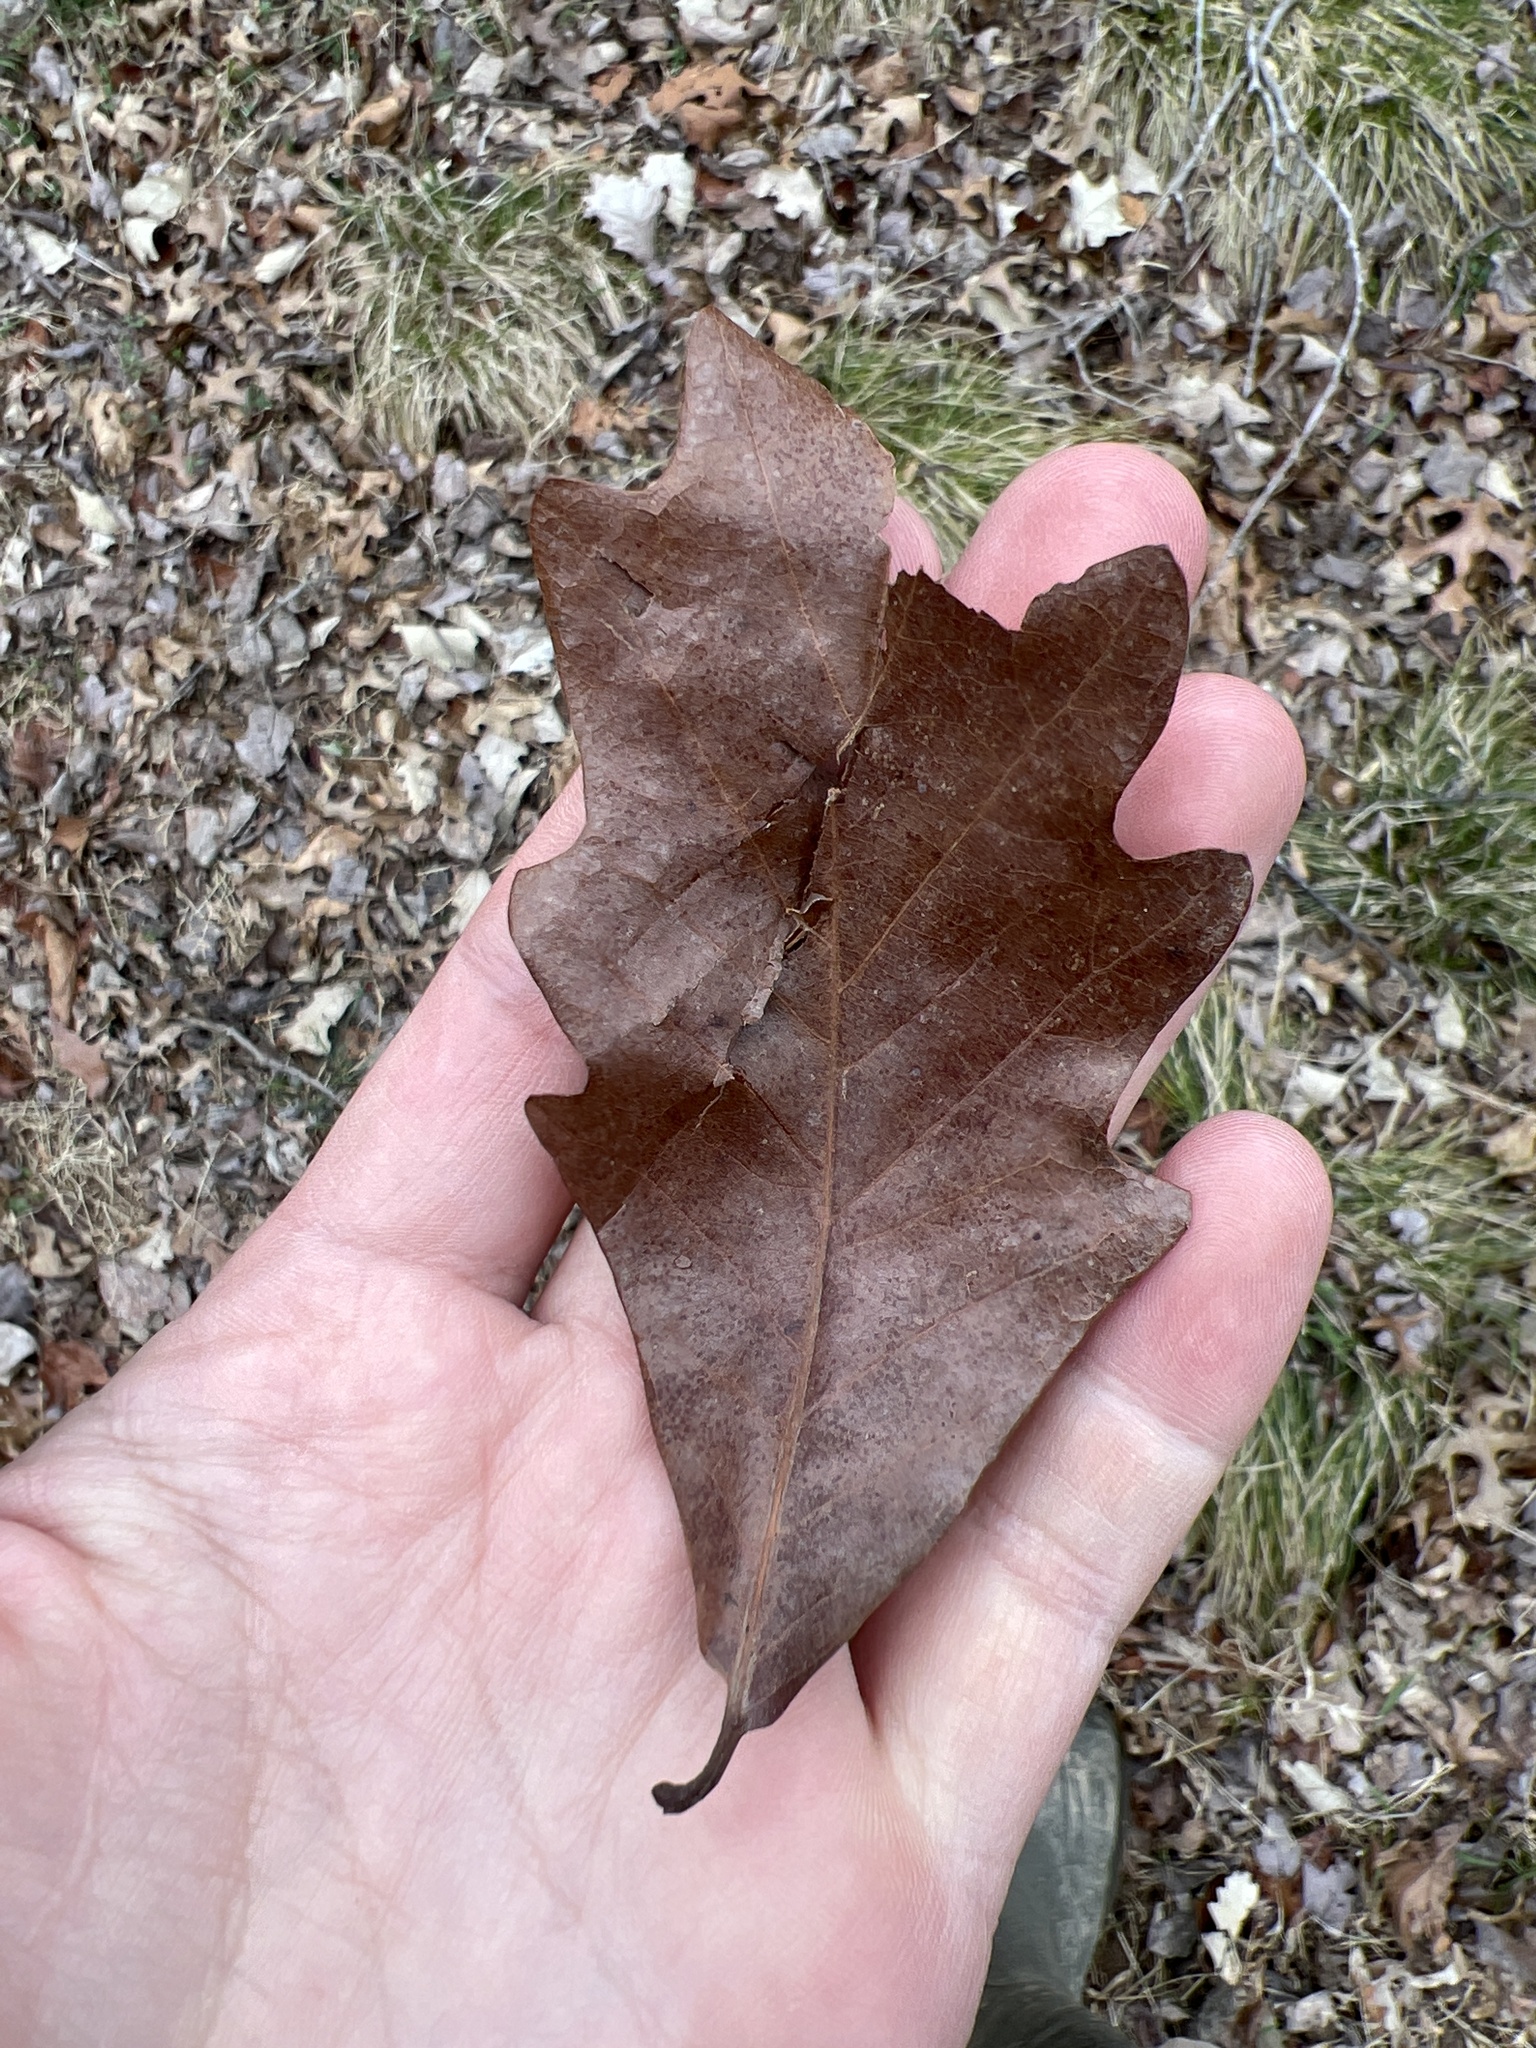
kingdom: Plantae
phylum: Tracheophyta
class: Magnoliopsida
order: Fagales
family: Fagaceae
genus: Quercus
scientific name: Quercus bicolor
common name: Swamp white oak
